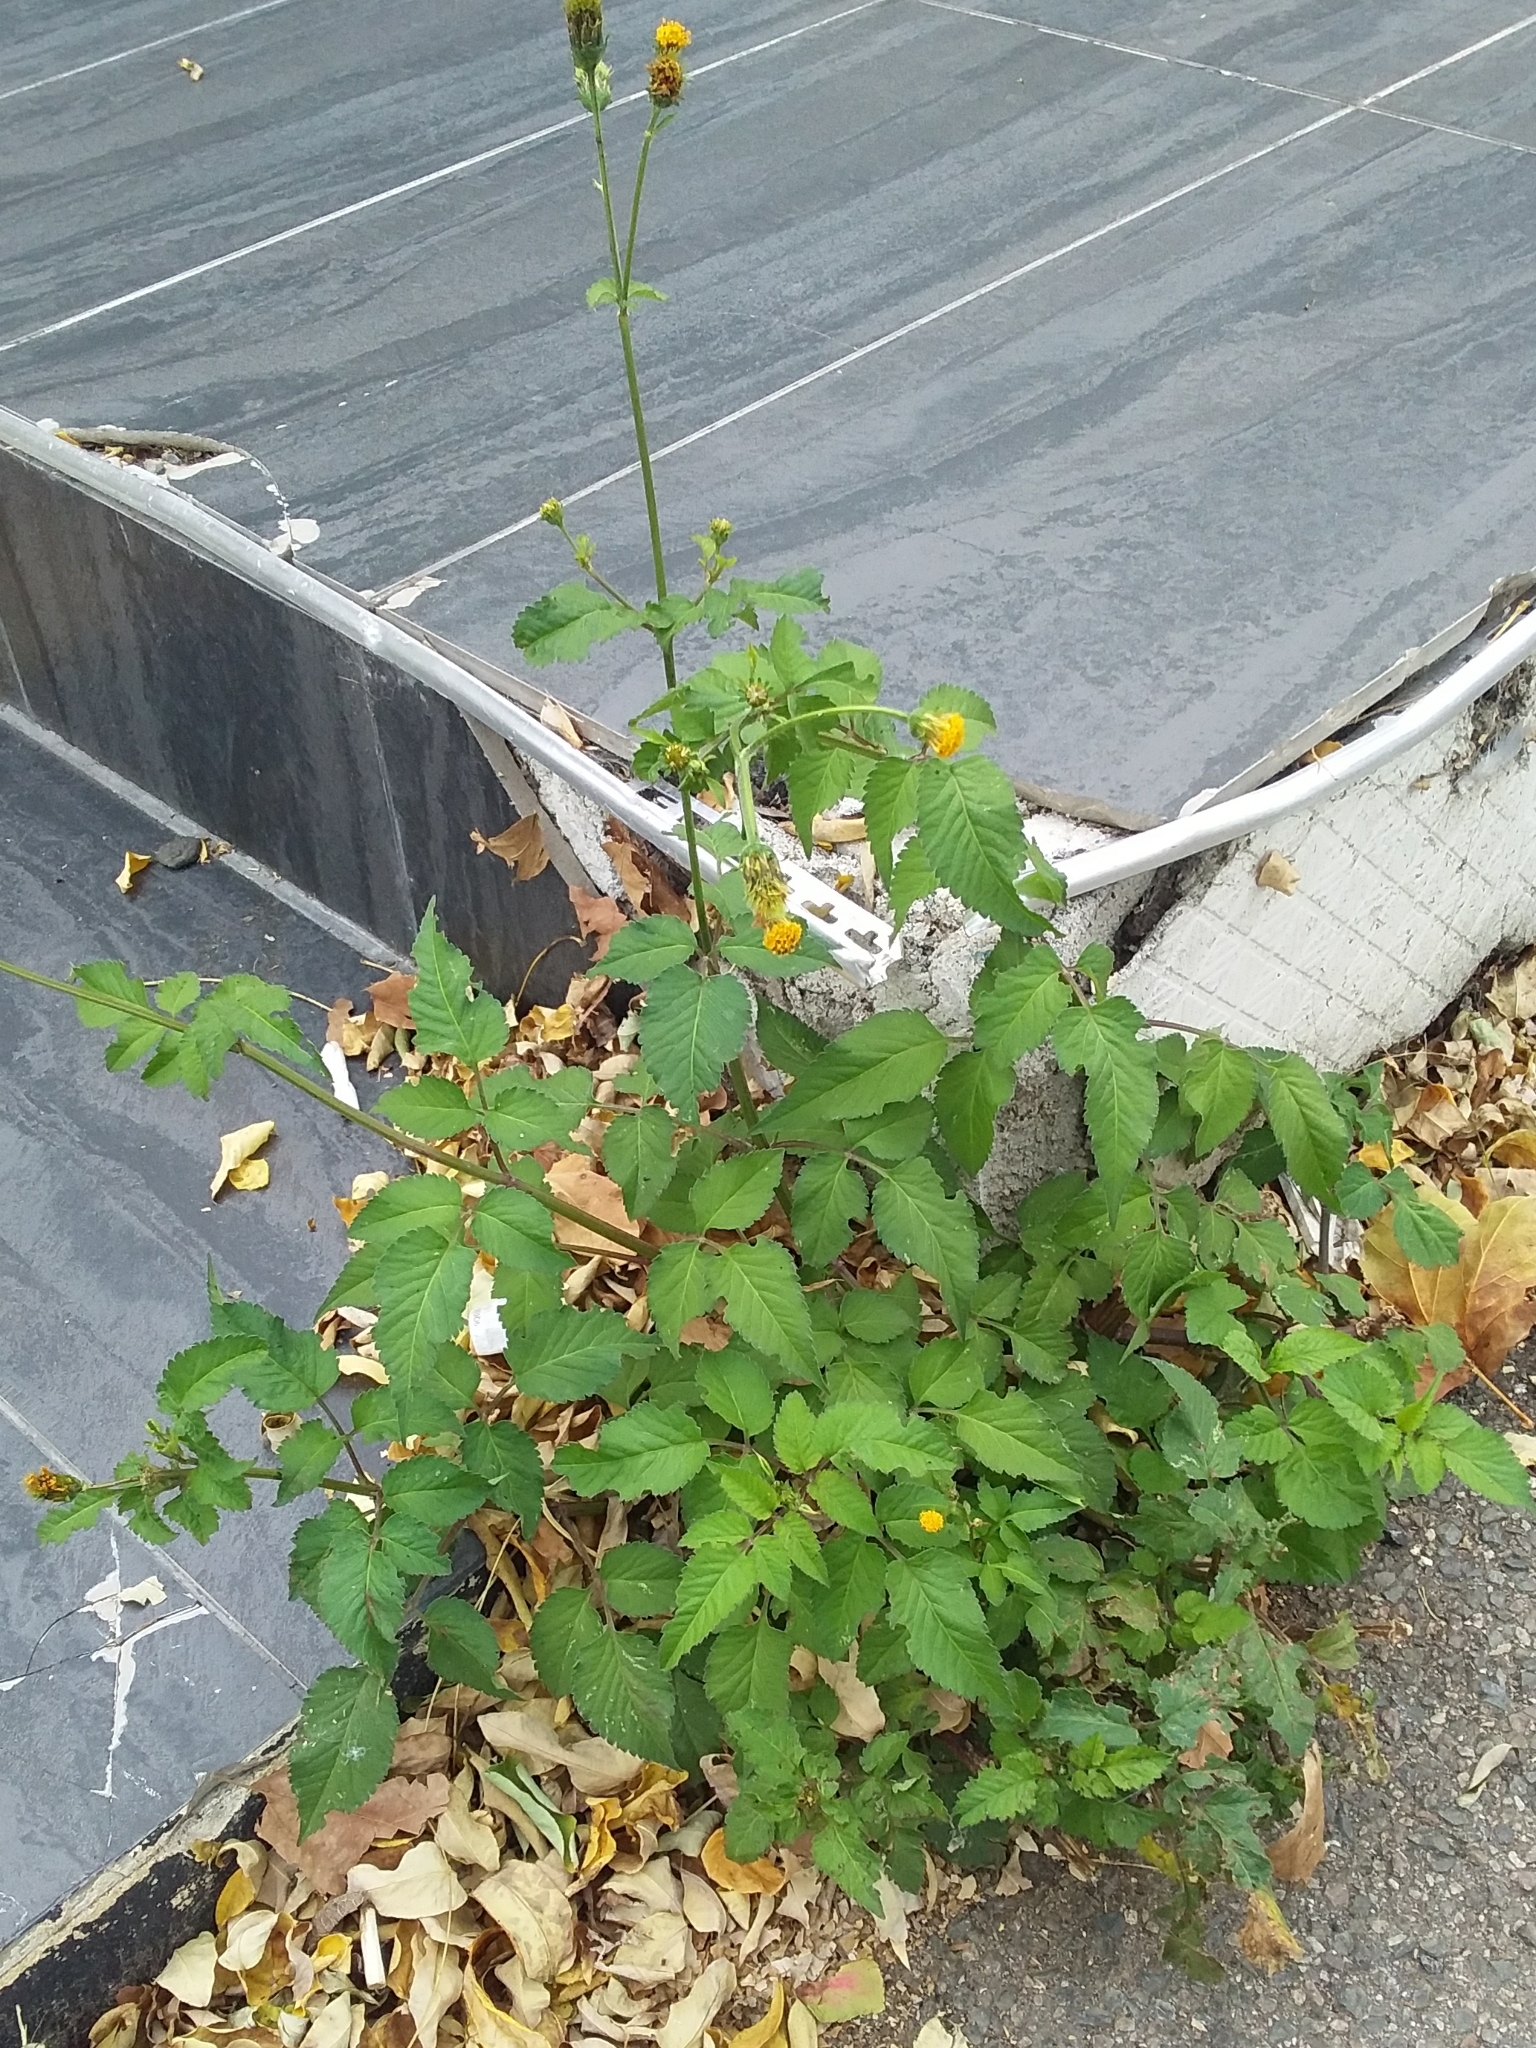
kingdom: Plantae
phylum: Tracheophyta
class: Magnoliopsida
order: Asterales
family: Asteraceae
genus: Bidens
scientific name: Bidens pilosa
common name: Black-jack
